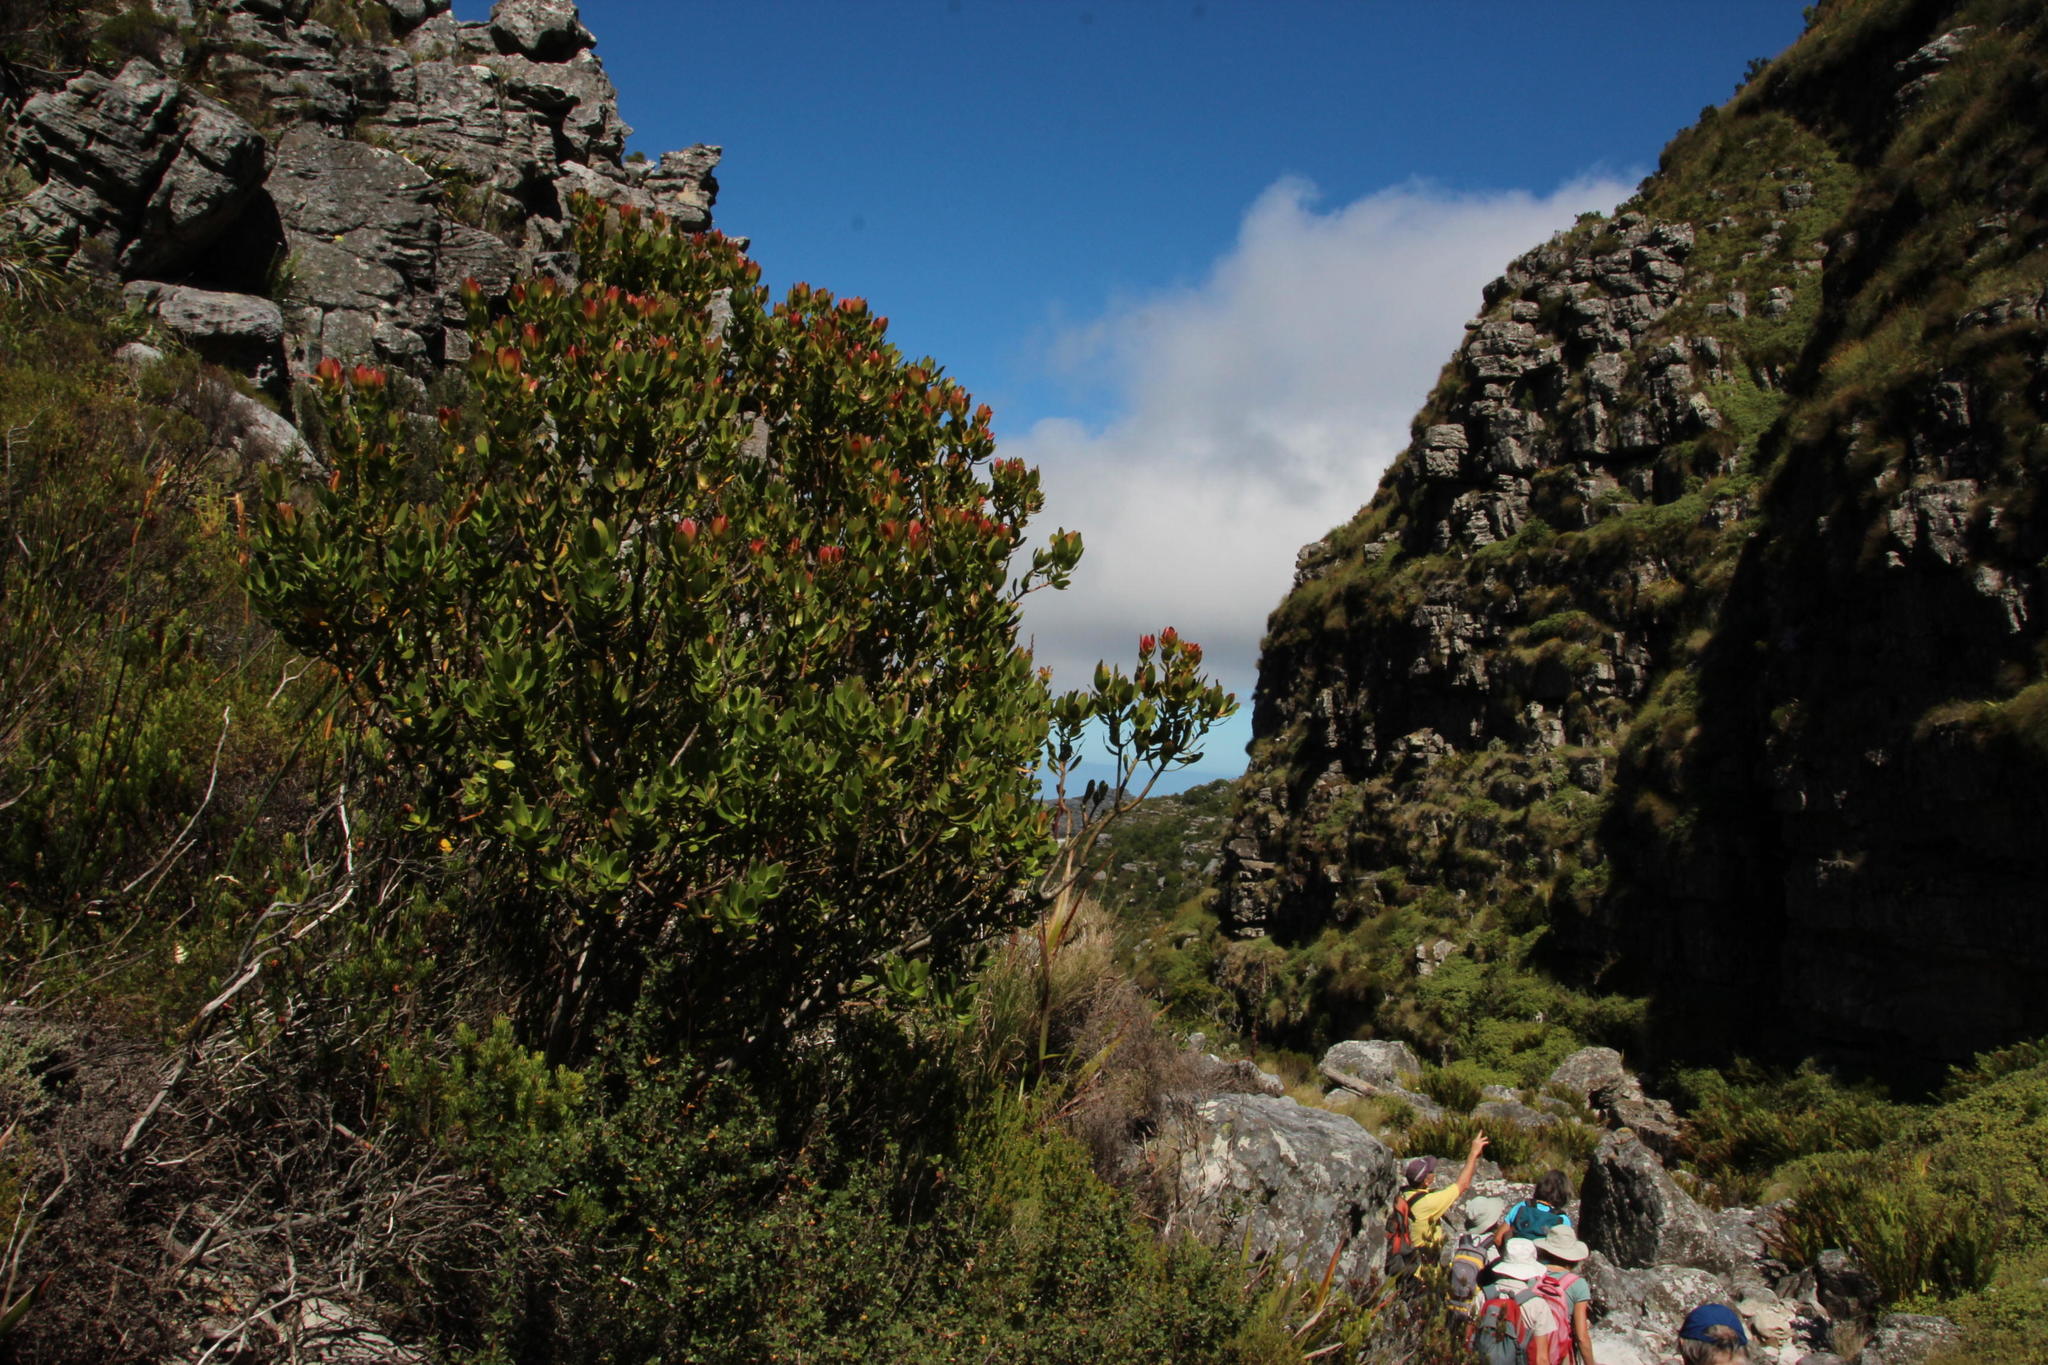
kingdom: Plantae
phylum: Tracheophyta
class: Magnoliopsida
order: Proteales
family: Proteaceae
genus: Leucadendron
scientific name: Leucadendron strobilinum
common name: Mountain rose
